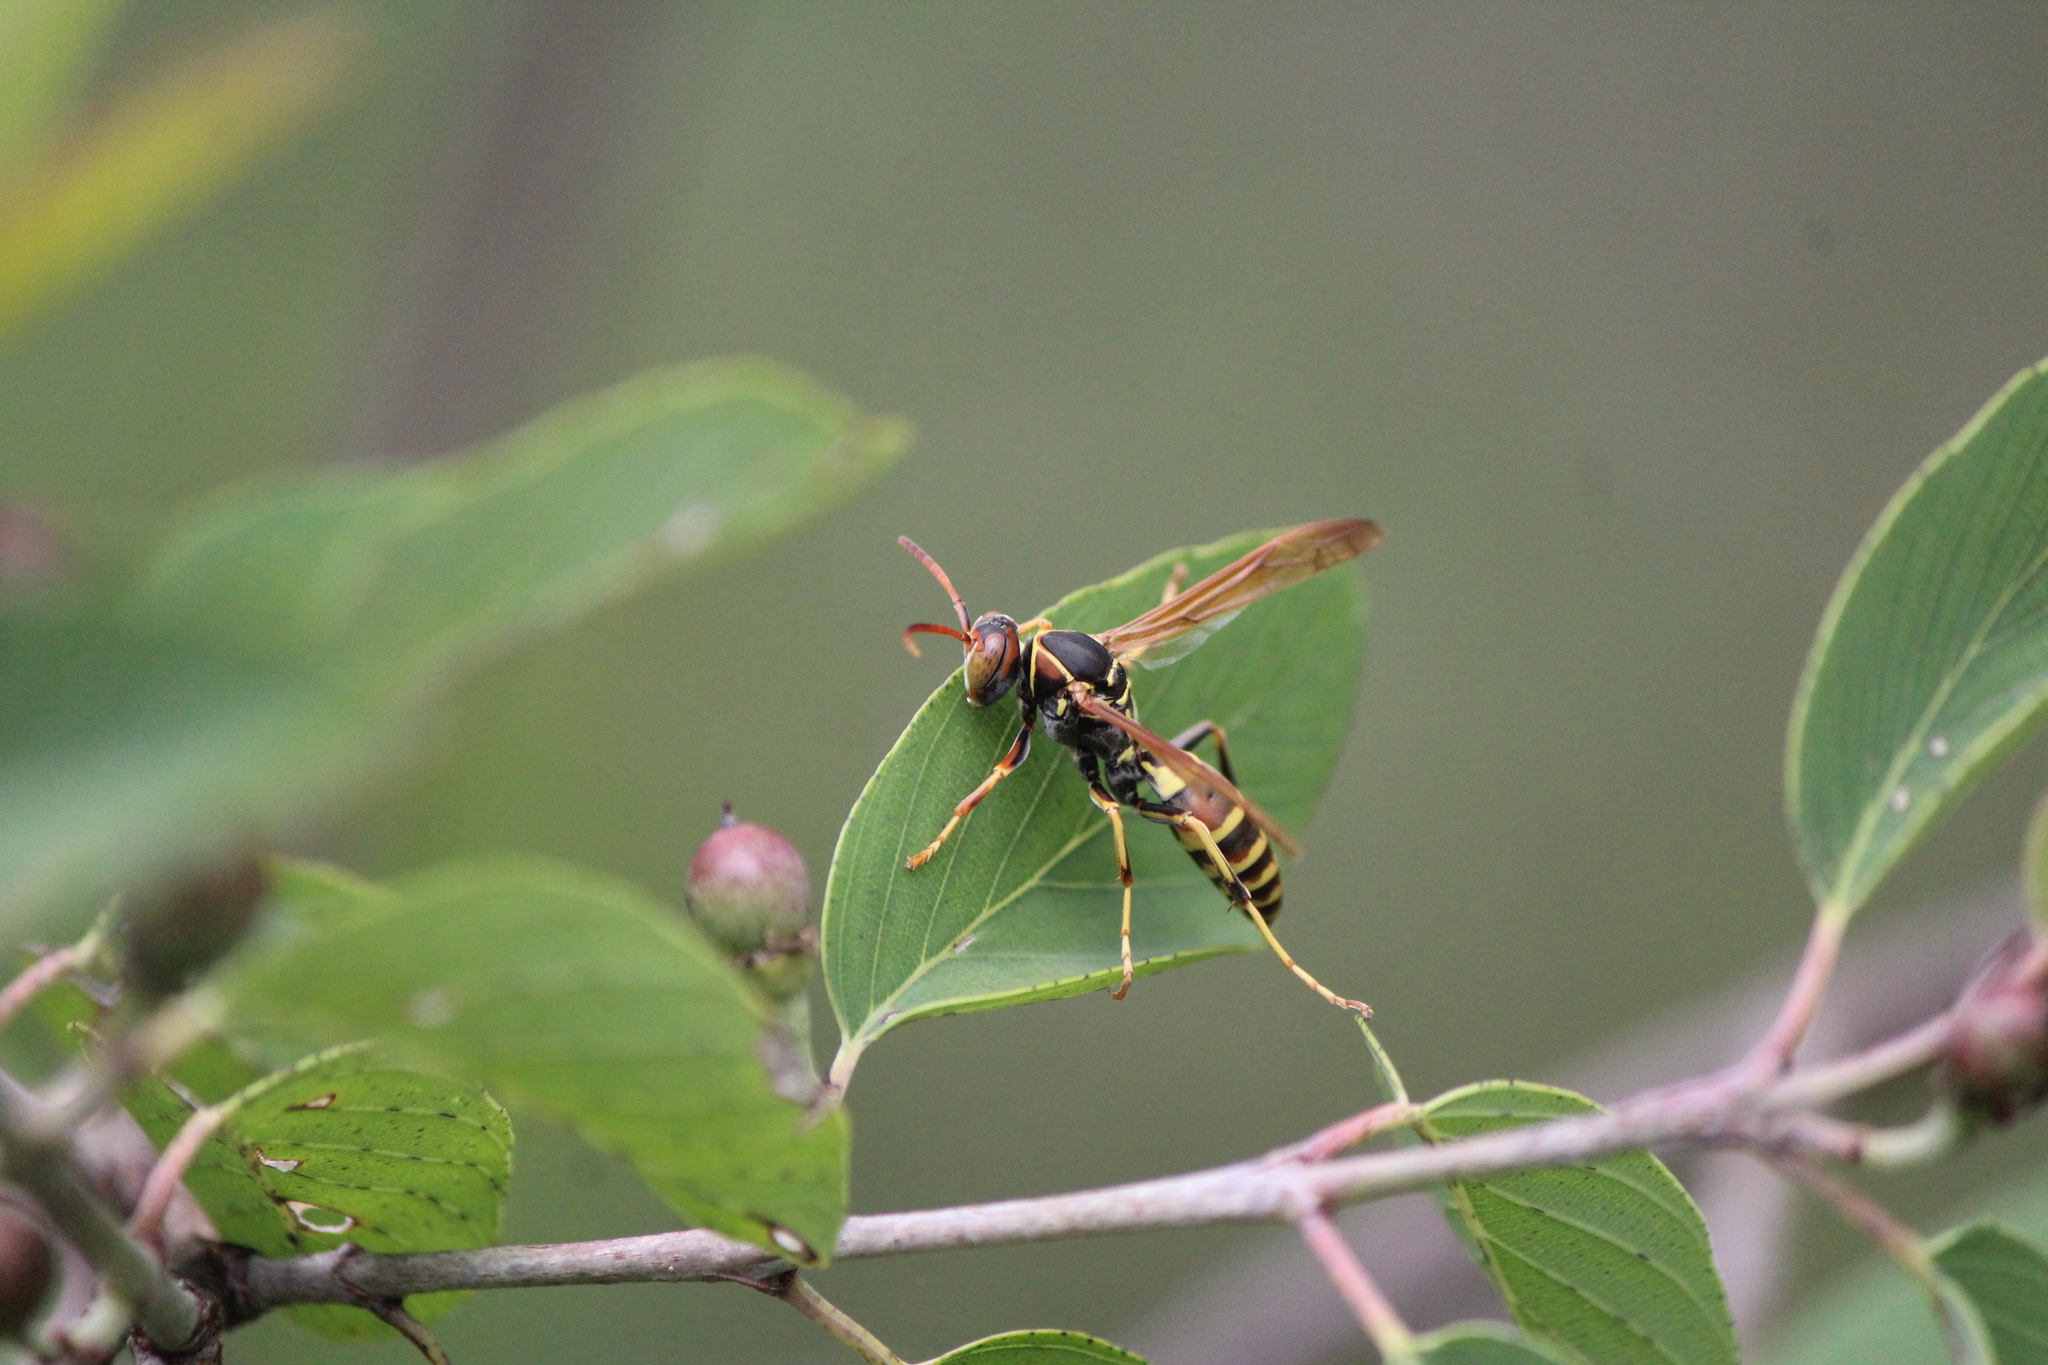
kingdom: Animalia
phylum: Arthropoda
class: Insecta
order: Hymenoptera
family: Eumenidae
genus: Polistes
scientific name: Polistes dorsalis
